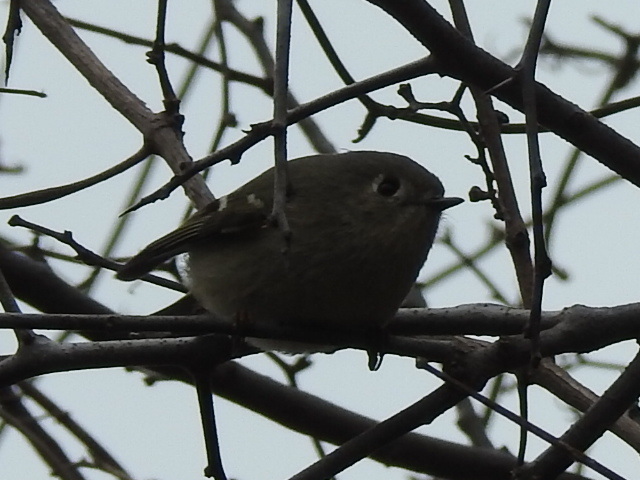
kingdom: Animalia
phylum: Chordata
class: Aves
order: Passeriformes
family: Regulidae
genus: Regulus
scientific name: Regulus calendula
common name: Ruby-crowned kinglet
